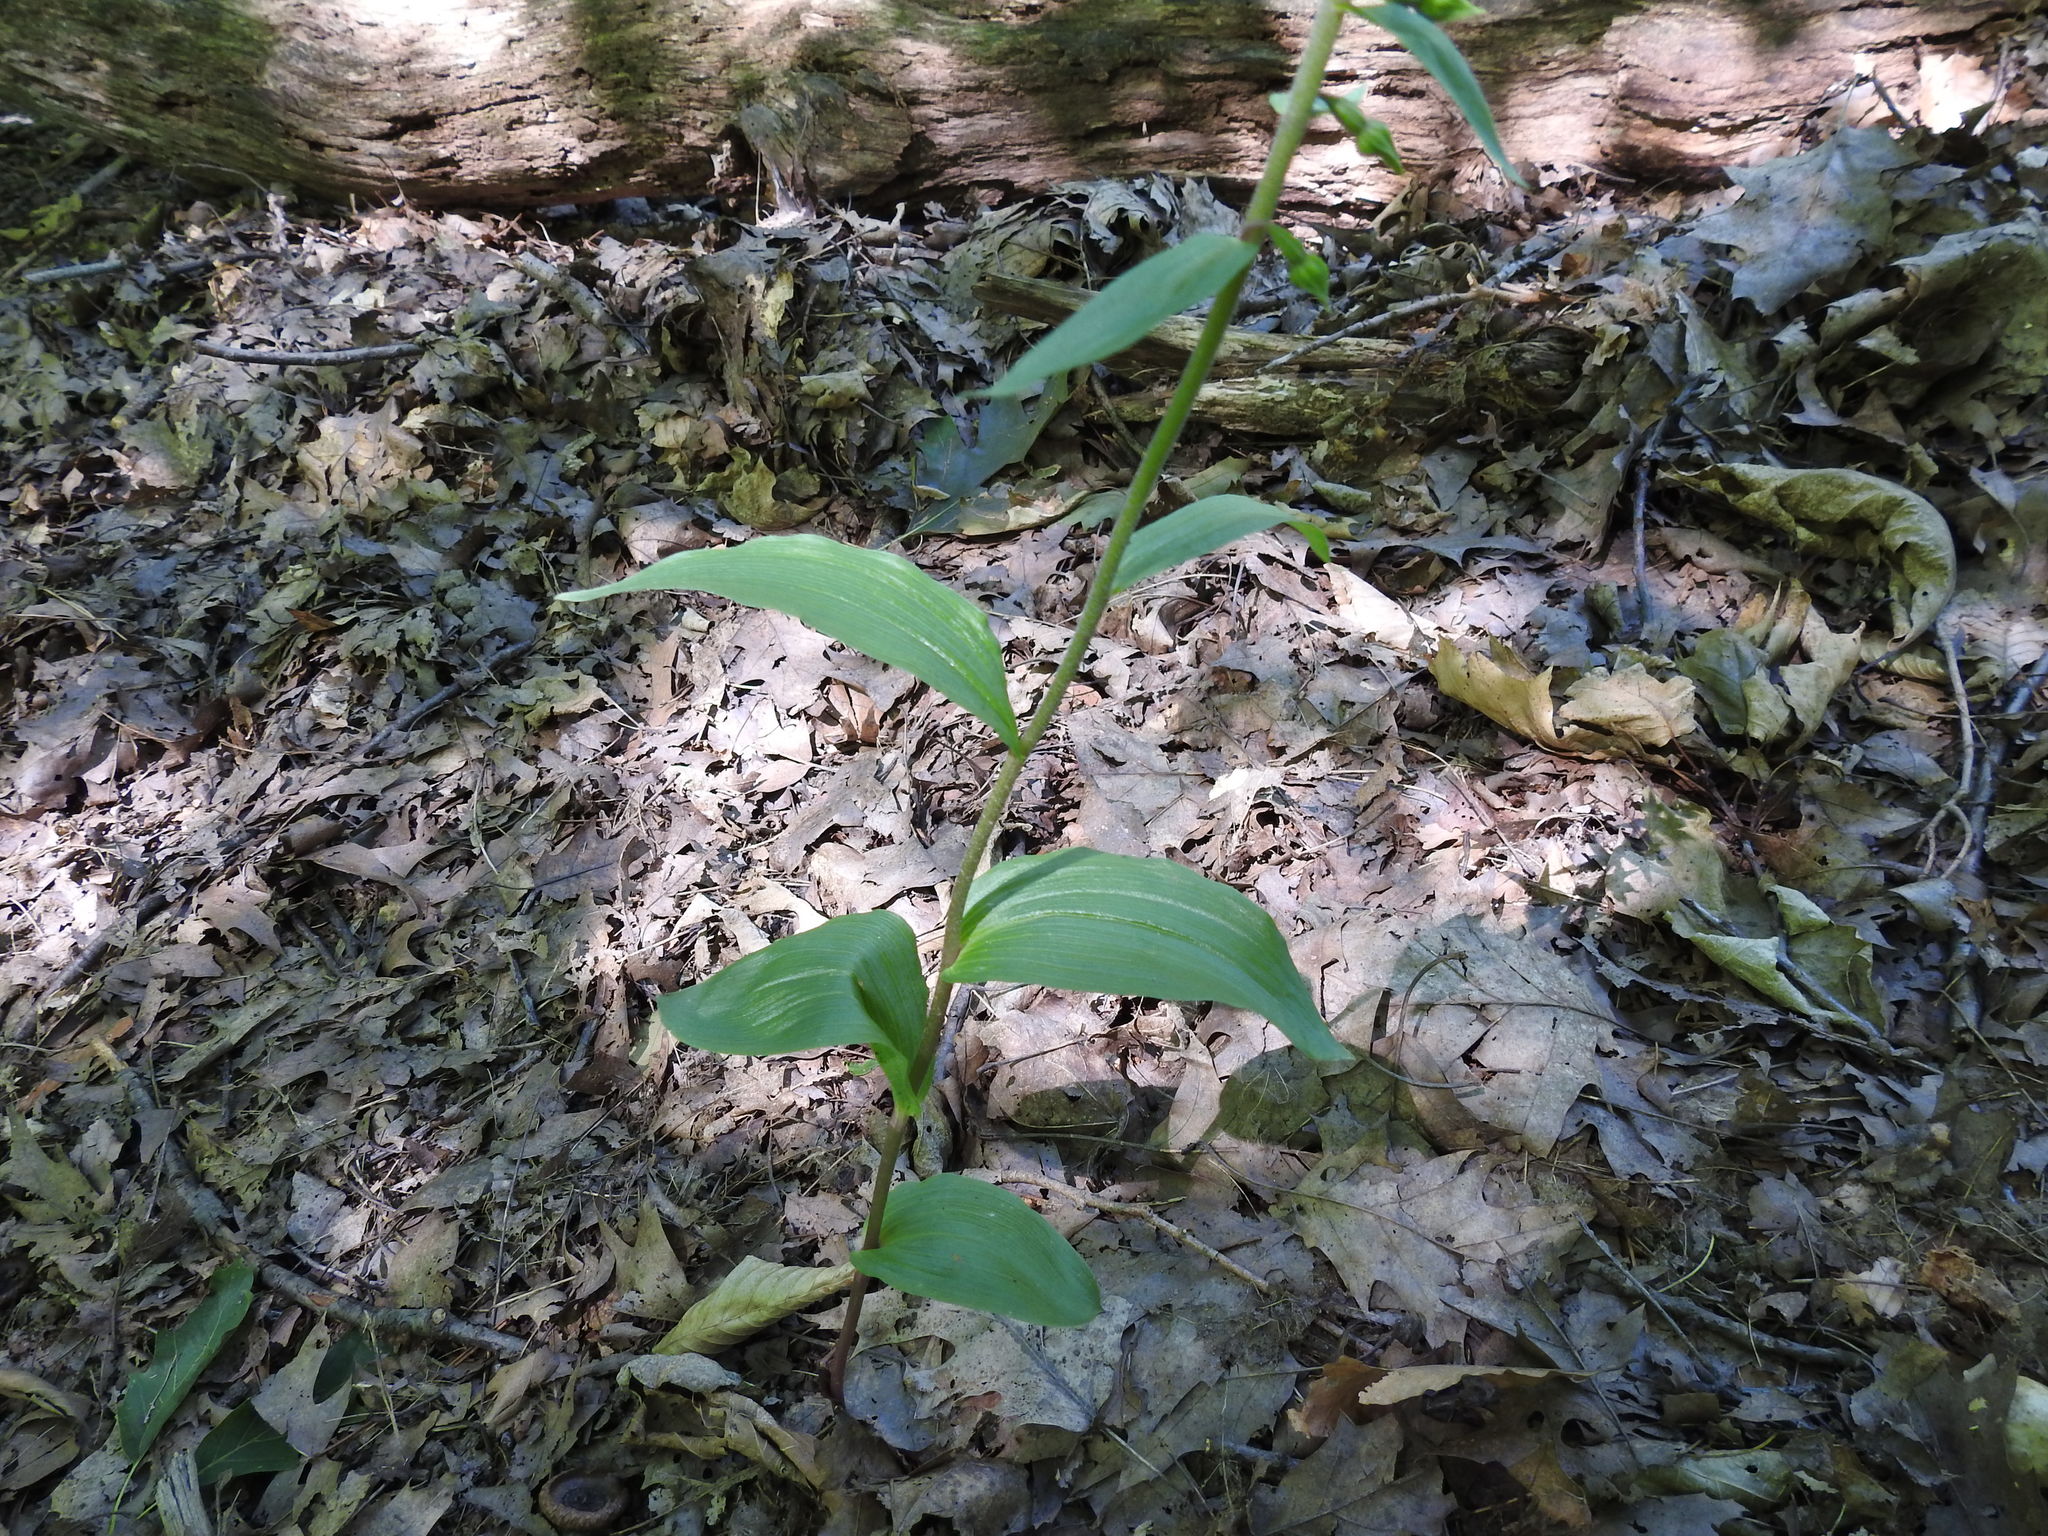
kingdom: Plantae
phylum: Tracheophyta
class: Liliopsida
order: Asparagales
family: Orchidaceae
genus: Epipactis
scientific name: Epipactis helleborine
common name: Broad-leaved helleborine
